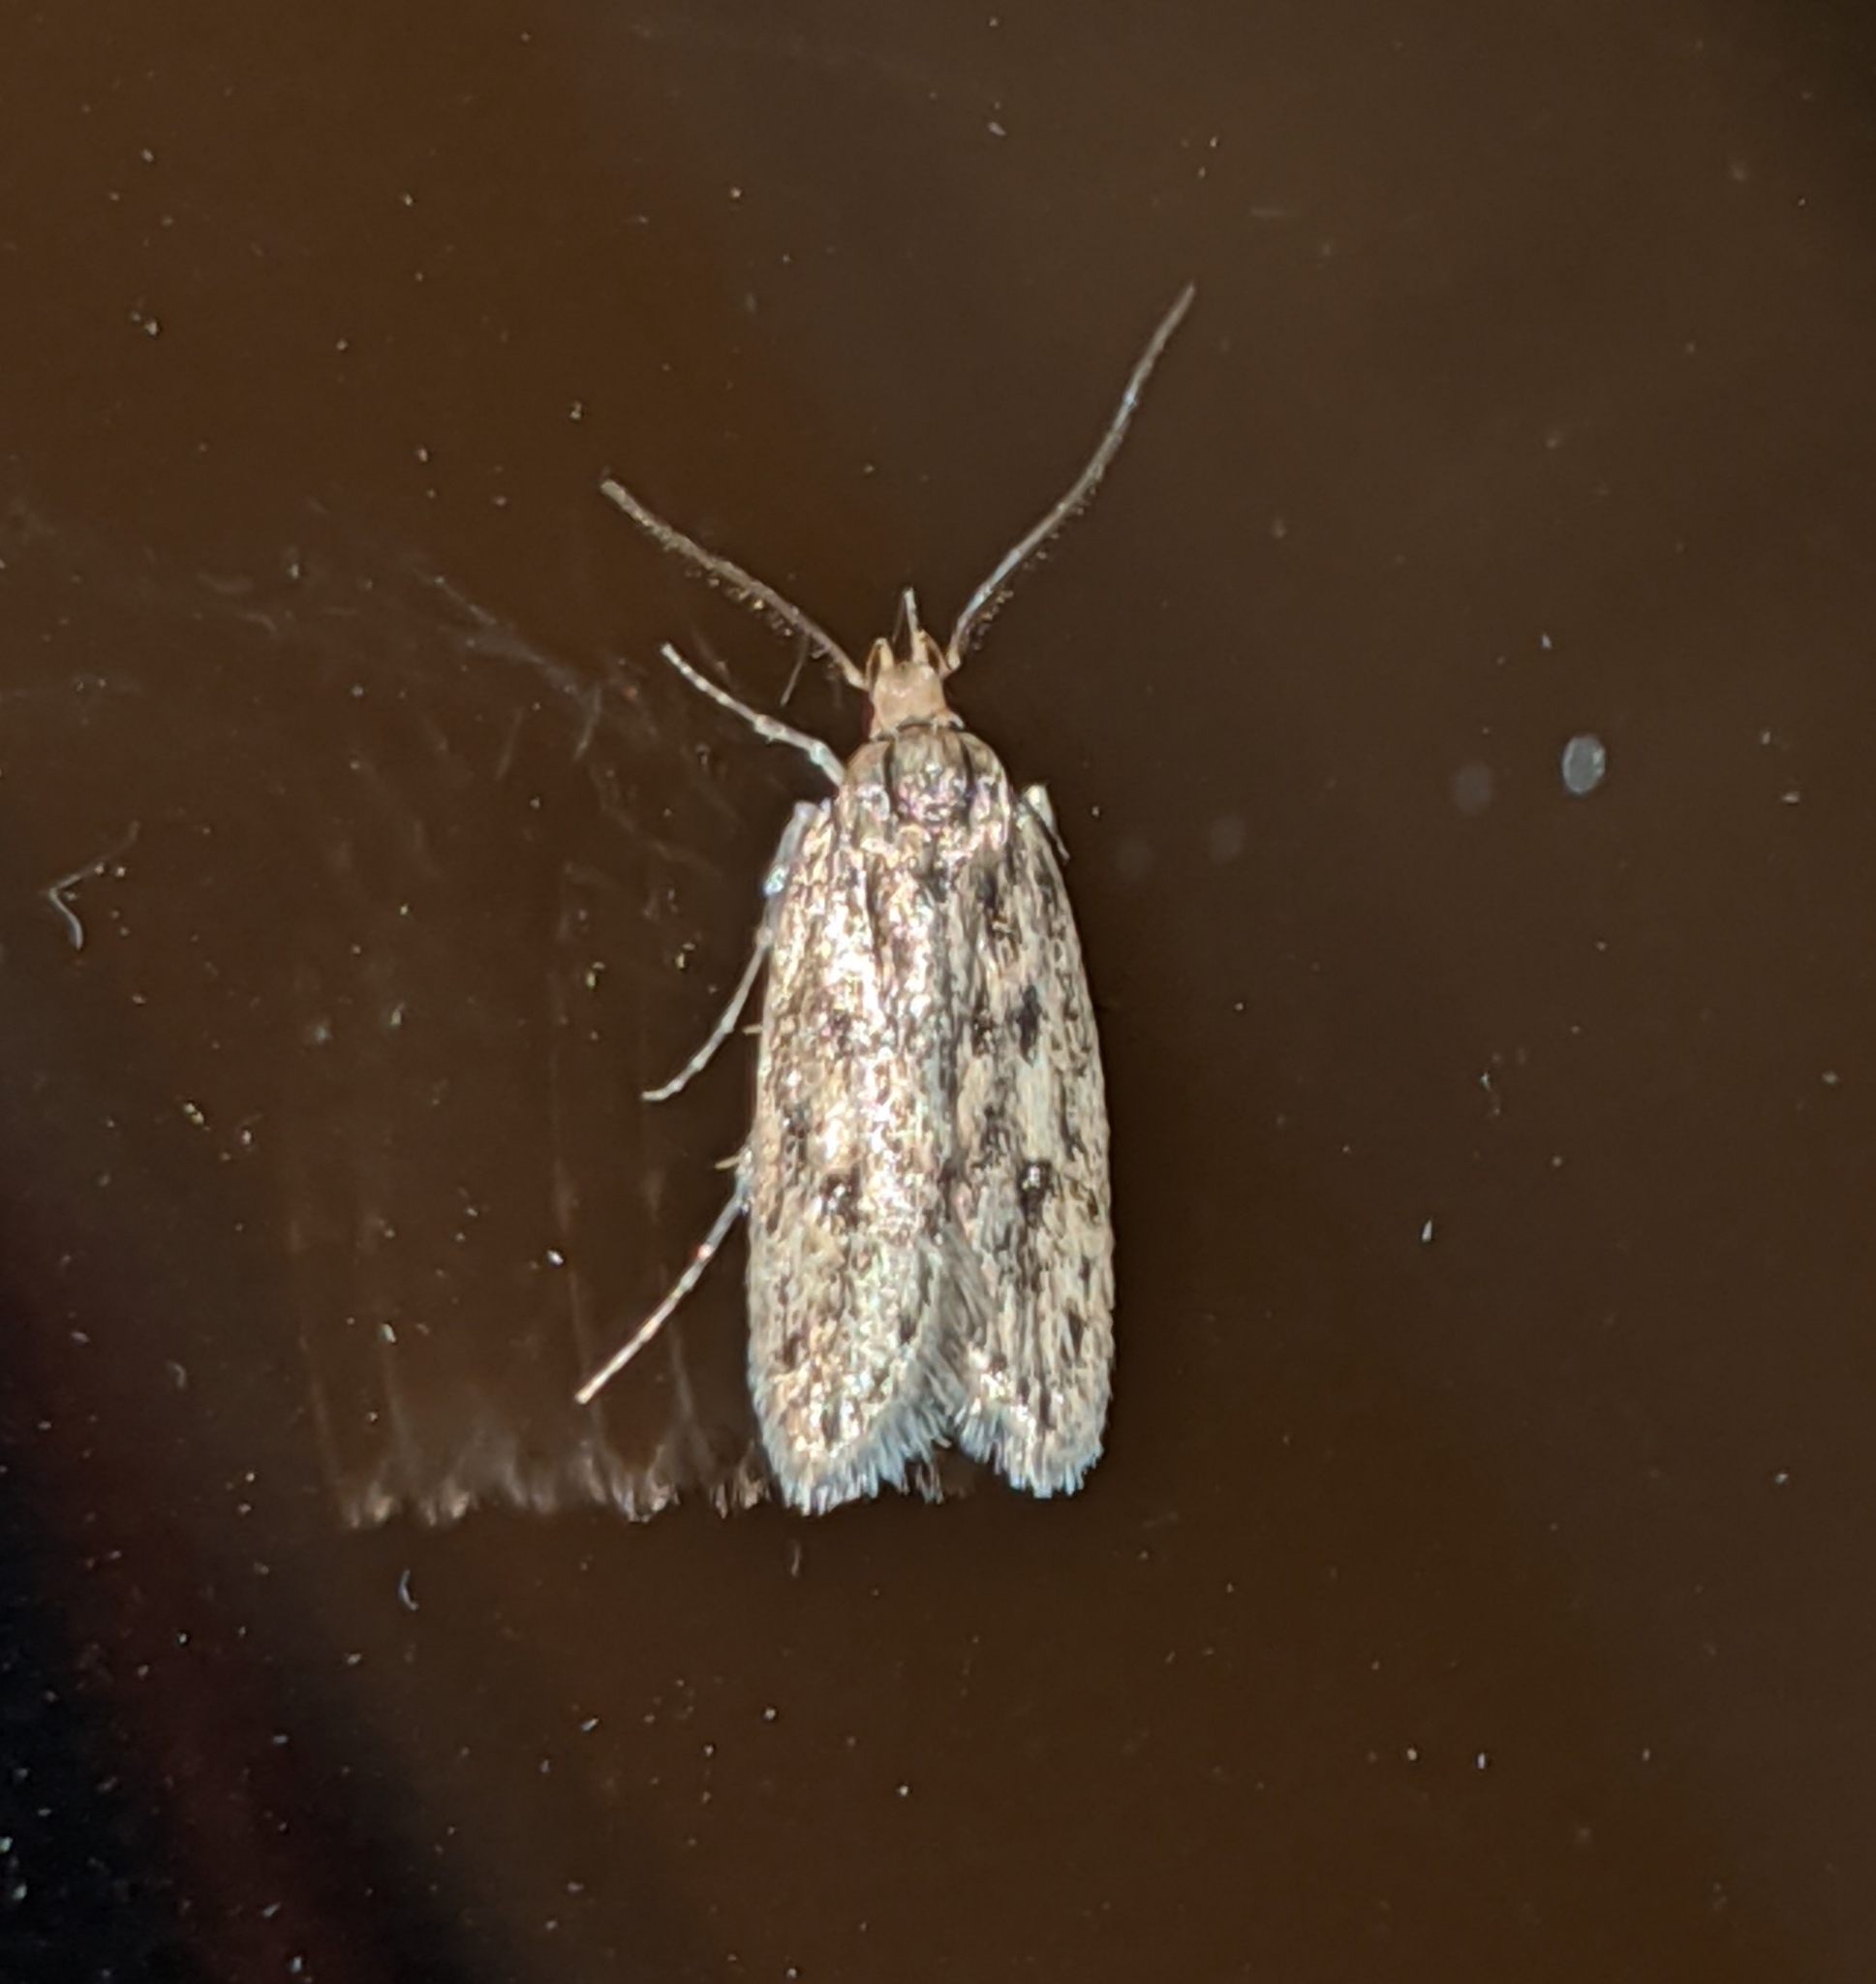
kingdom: Animalia
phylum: Arthropoda
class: Insecta
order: Lepidoptera
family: Oecophoridae
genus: Hofmannophila
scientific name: Hofmannophila pseudospretella
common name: Brown house moth
